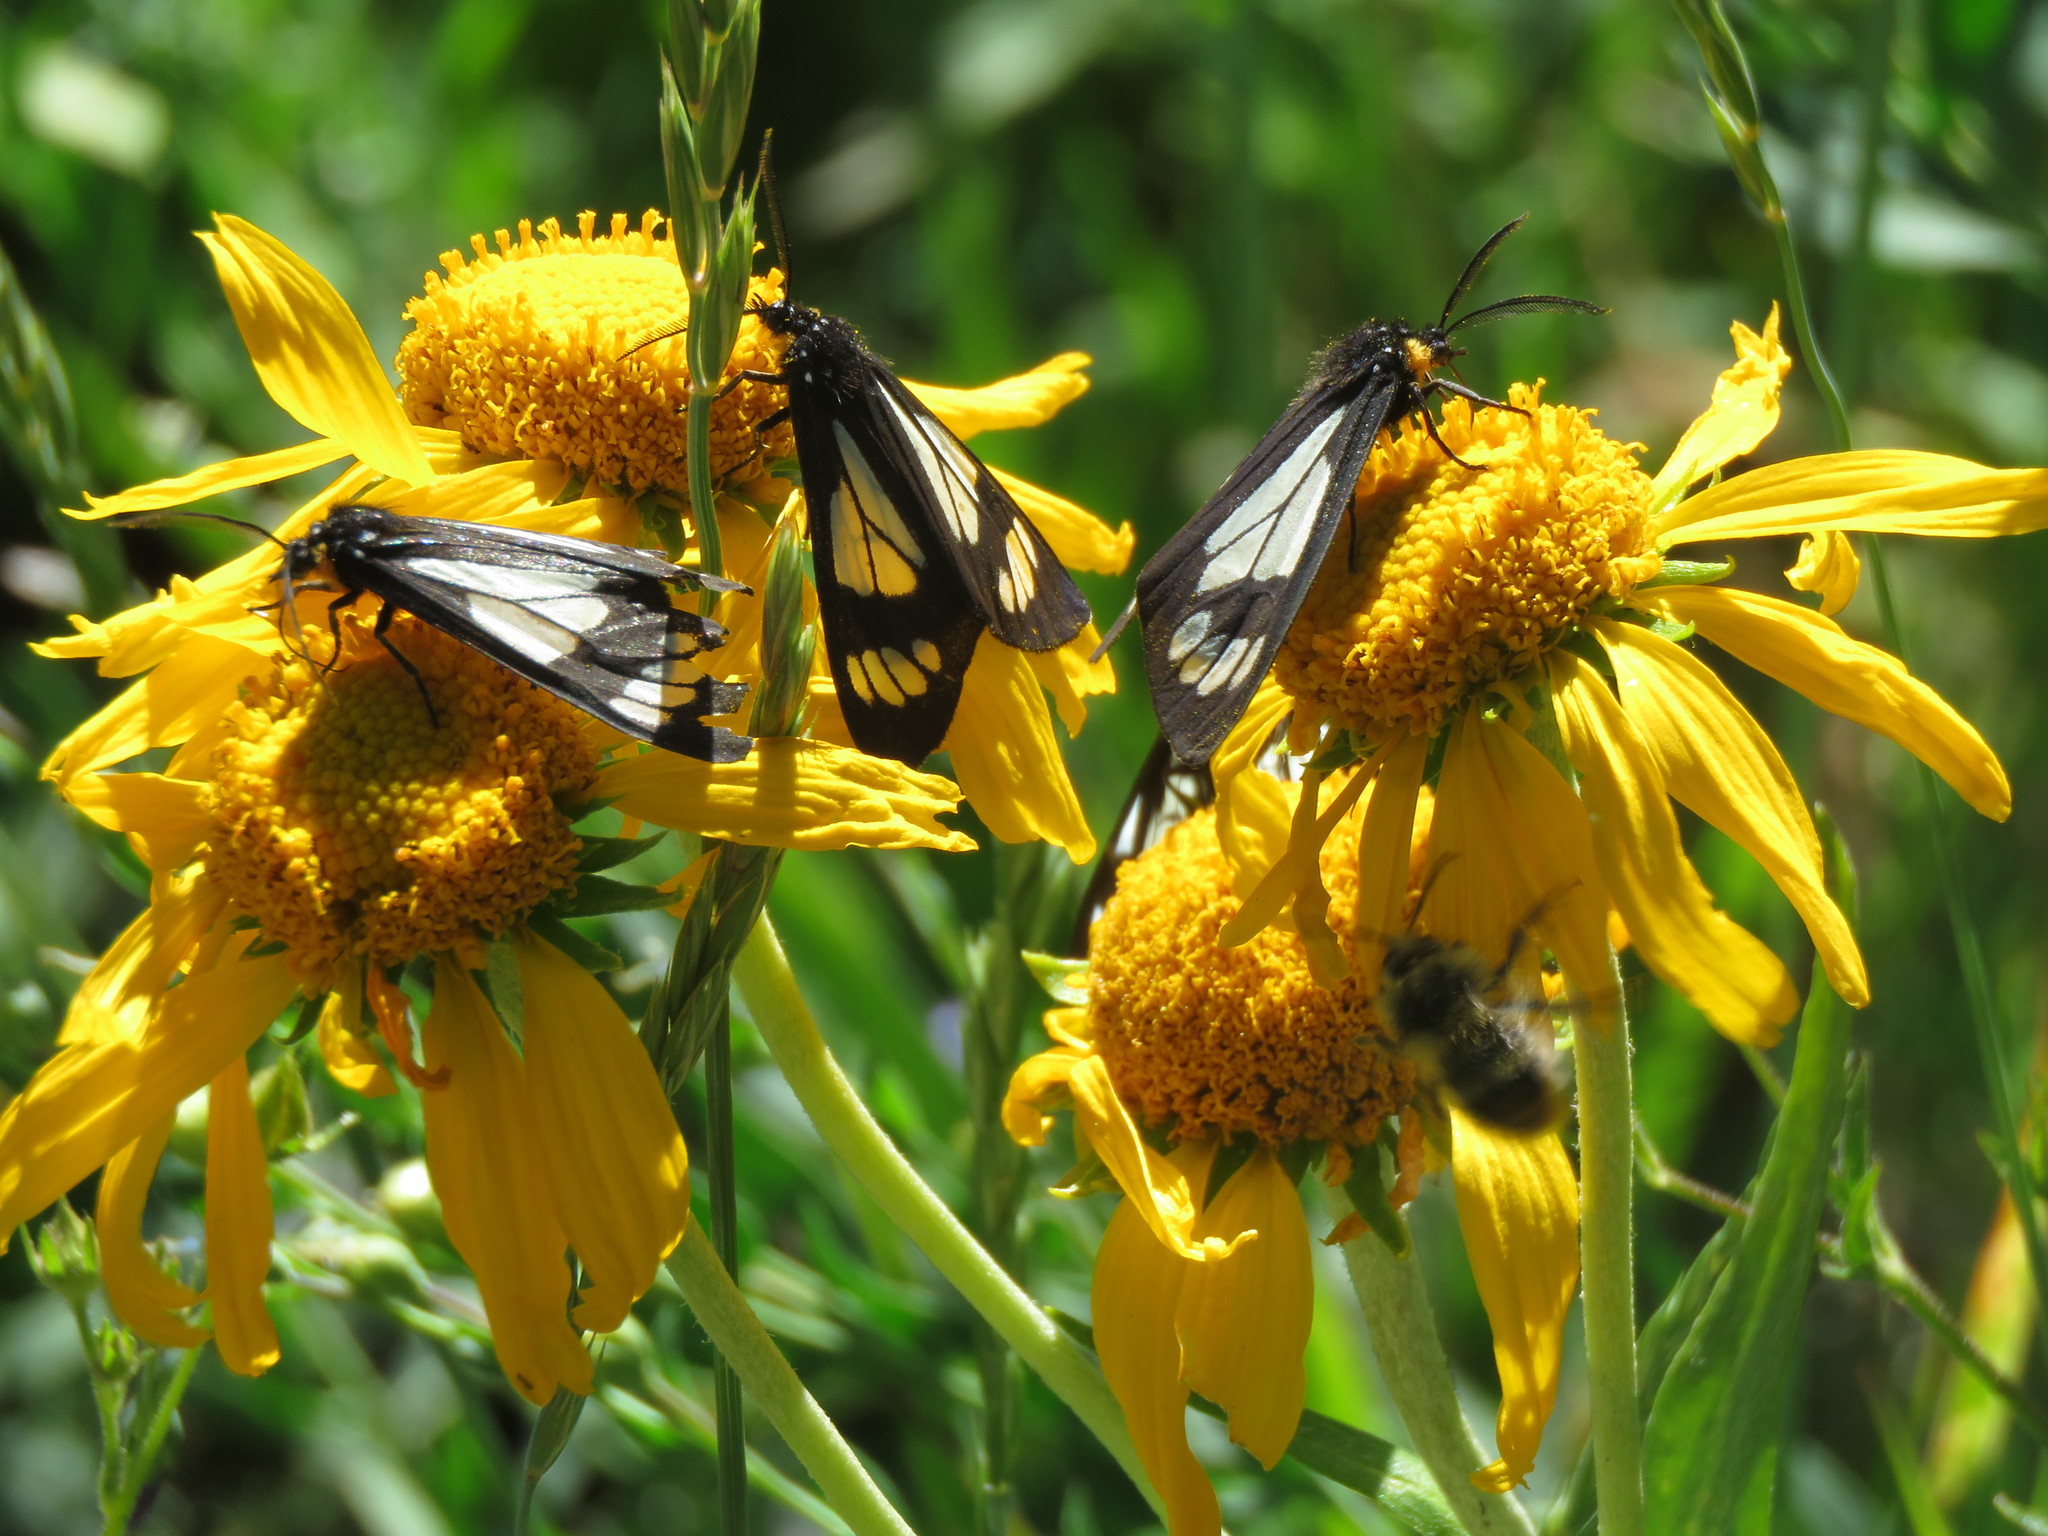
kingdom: Animalia
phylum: Arthropoda
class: Insecta
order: Lepidoptera
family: Erebidae
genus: Gnophaela
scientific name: Gnophaela vermiculata
